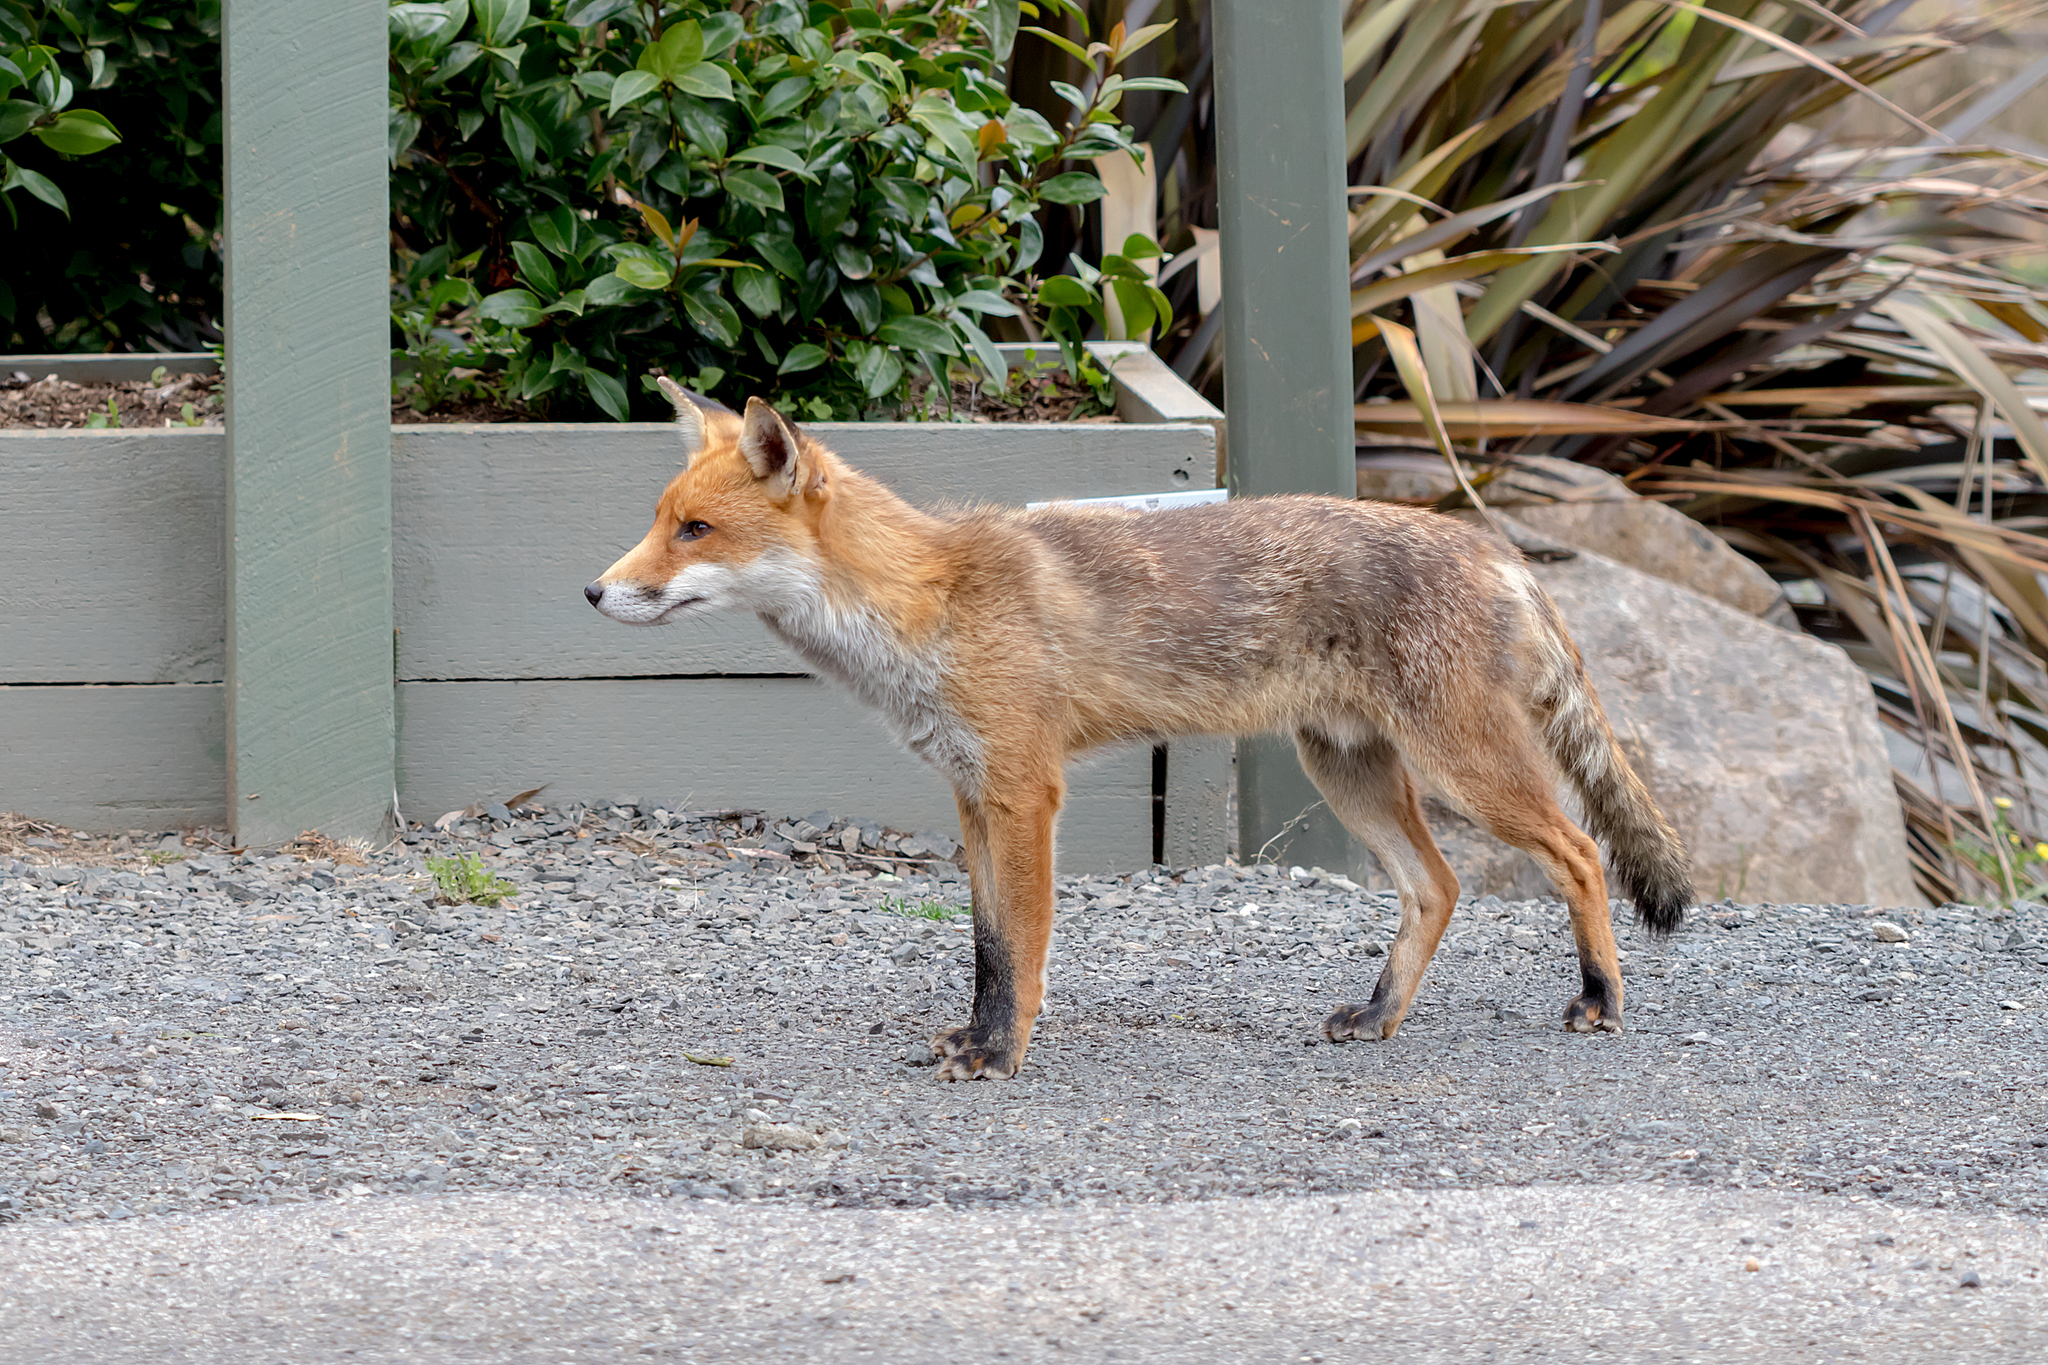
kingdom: Animalia
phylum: Chordata
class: Mammalia
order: Carnivora
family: Canidae
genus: Vulpes
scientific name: Vulpes vulpes
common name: Red fox
